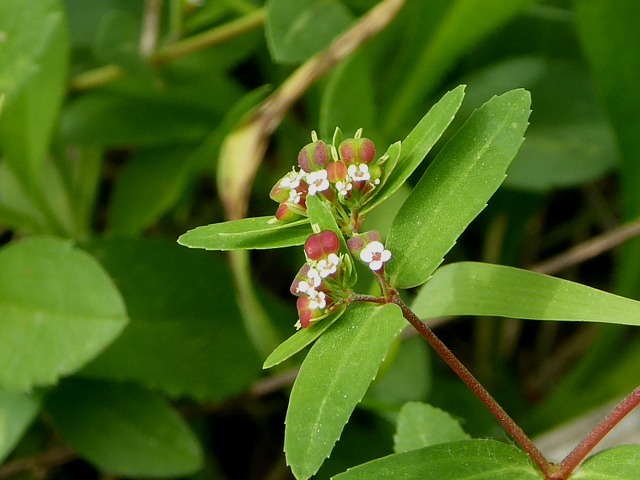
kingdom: Plantae
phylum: Tracheophyta
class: Magnoliopsida
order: Malpighiales
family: Euphorbiaceae
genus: Euphorbia
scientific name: Euphorbia nutans
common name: Eyebane
